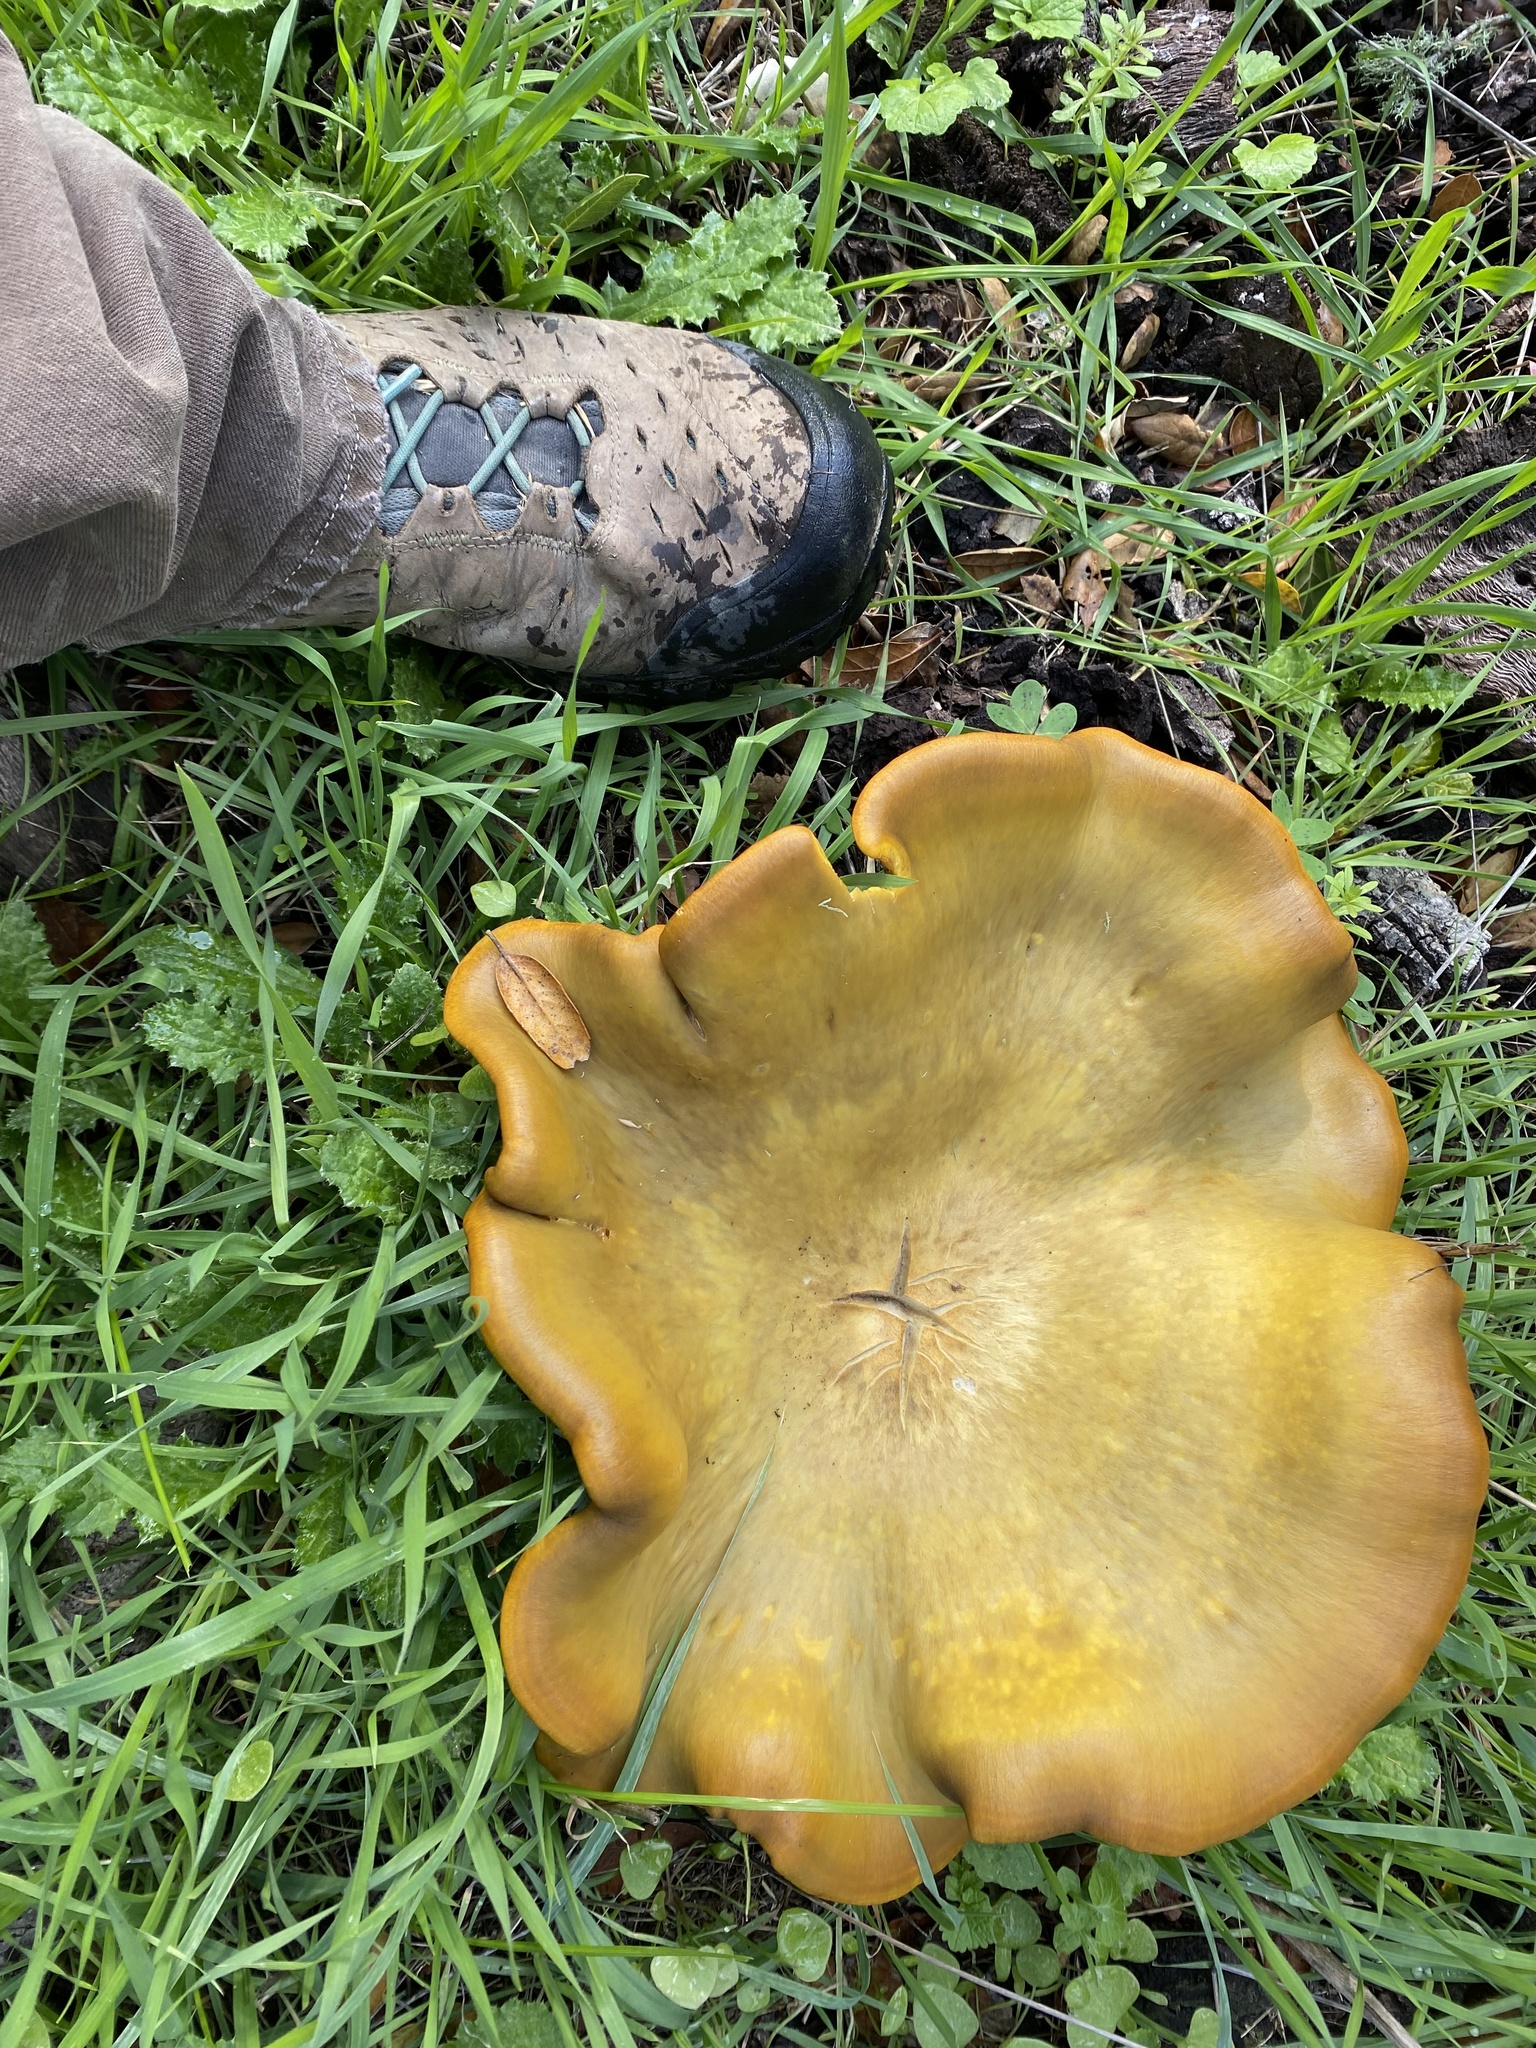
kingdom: Fungi
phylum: Basidiomycota
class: Agaricomycetes
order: Agaricales
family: Omphalotaceae
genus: Omphalotus
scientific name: Omphalotus olivascens
